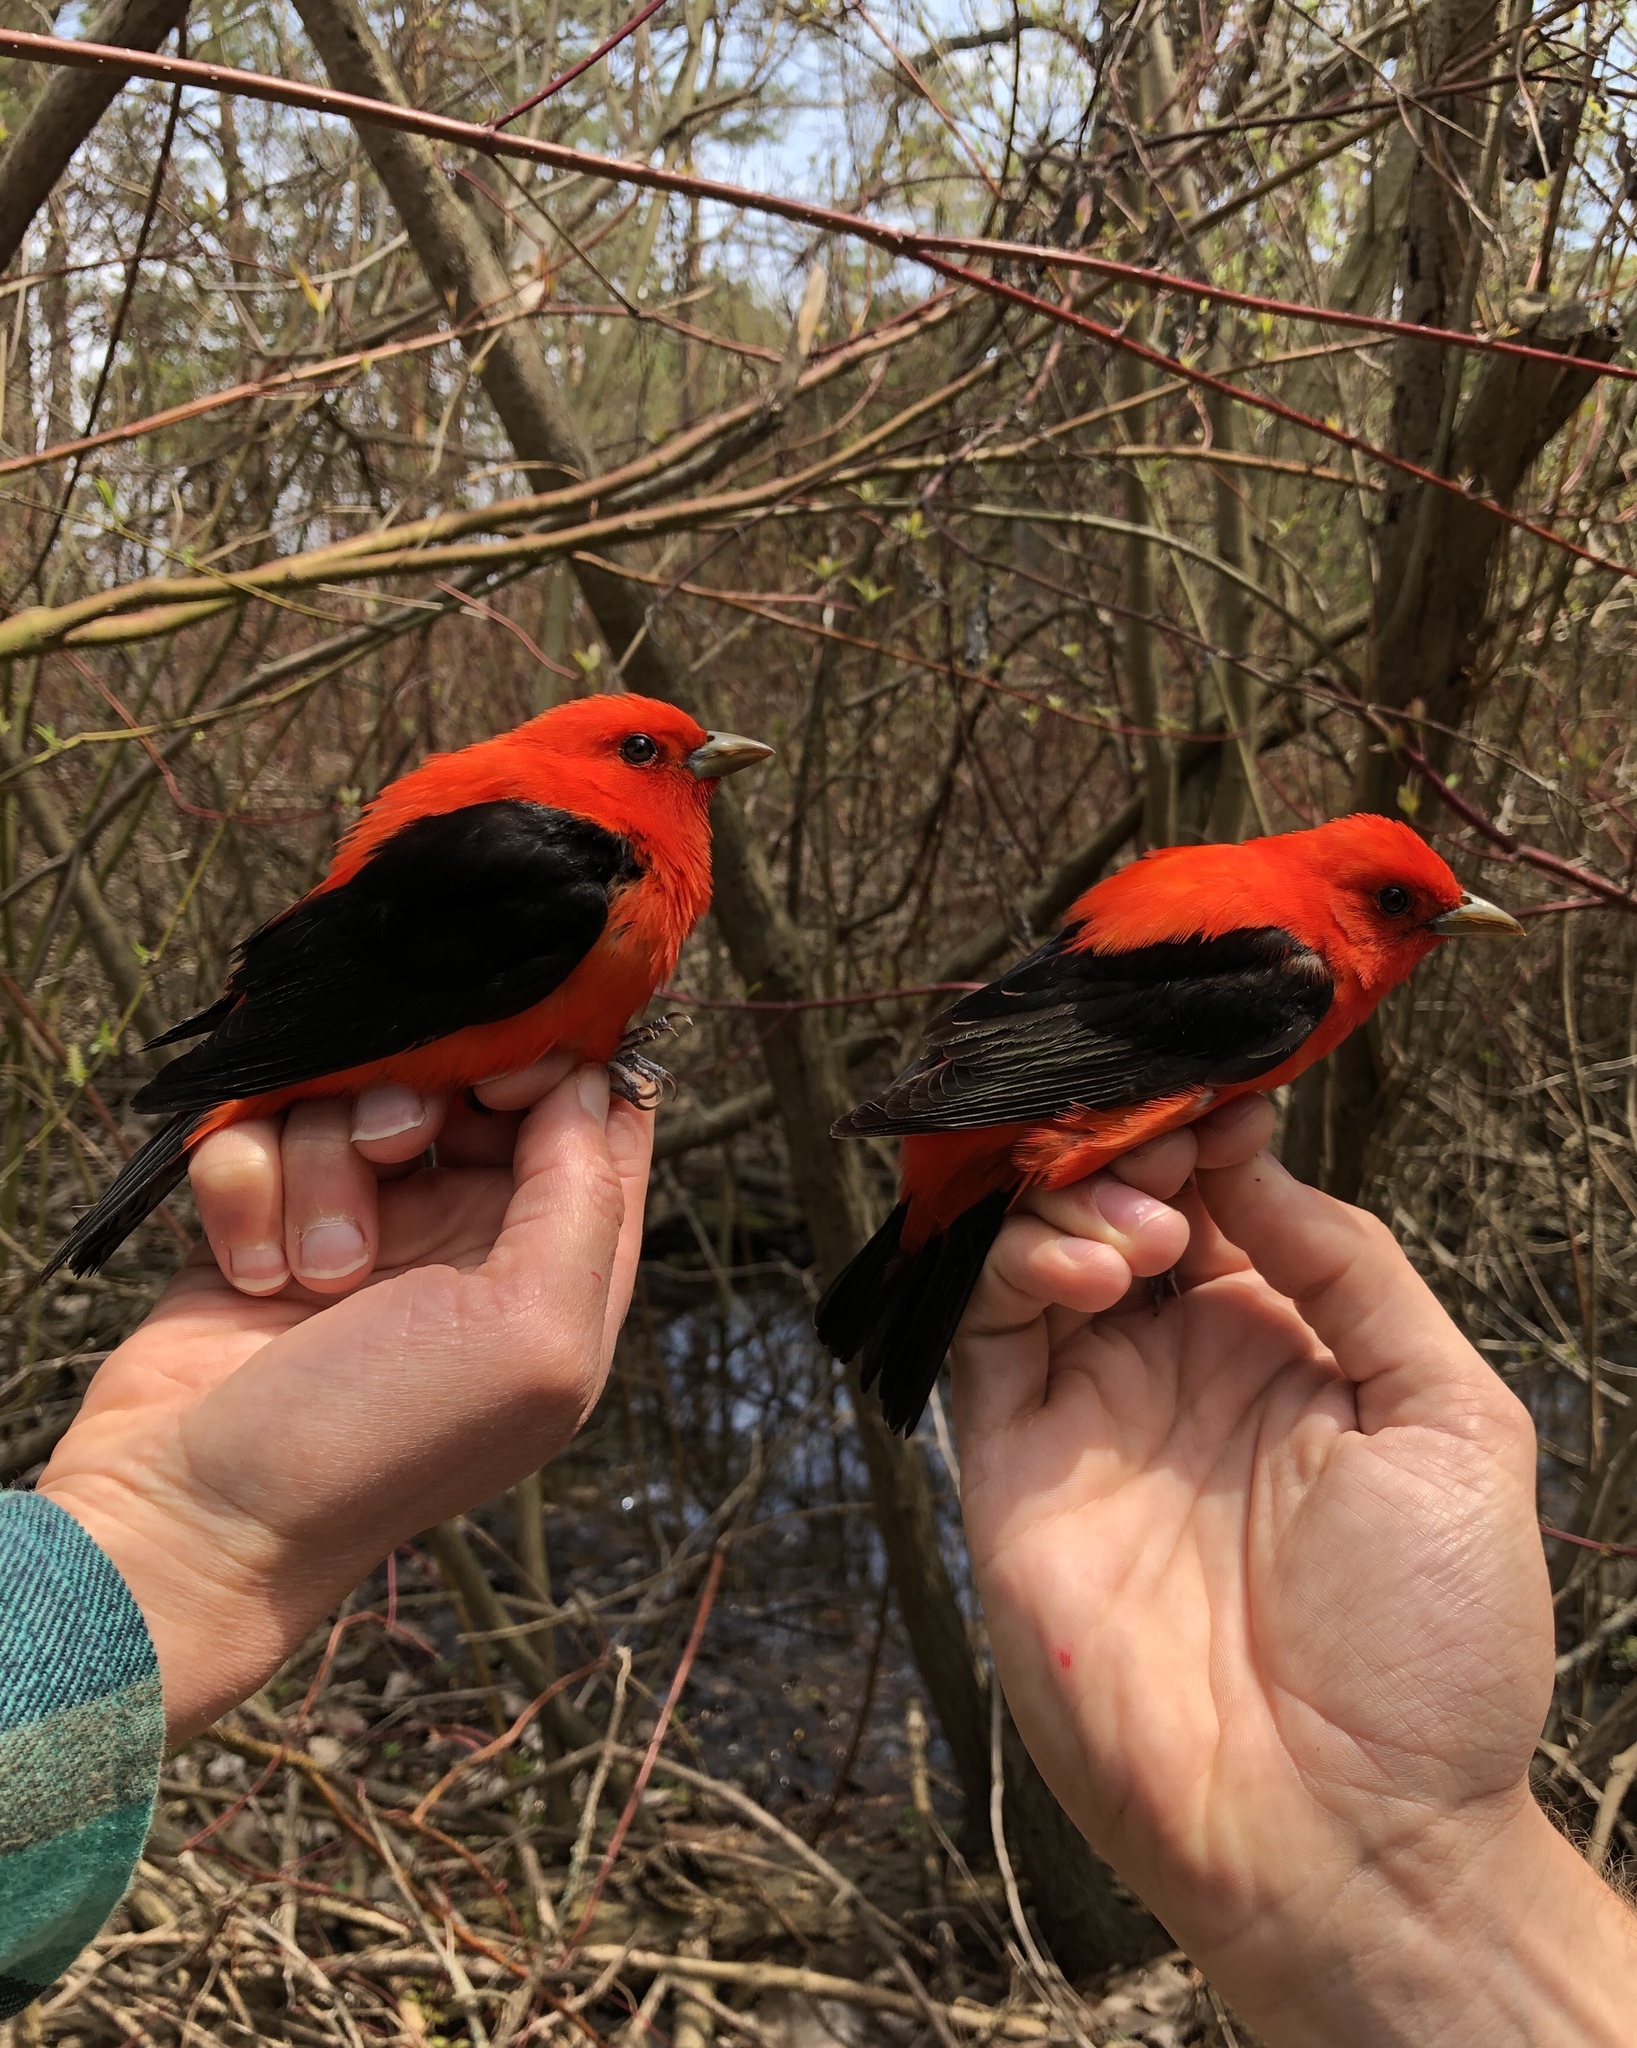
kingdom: Animalia
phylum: Chordata
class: Aves
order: Passeriformes
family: Cardinalidae
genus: Piranga
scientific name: Piranga olivacea
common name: Scarlet tanager
